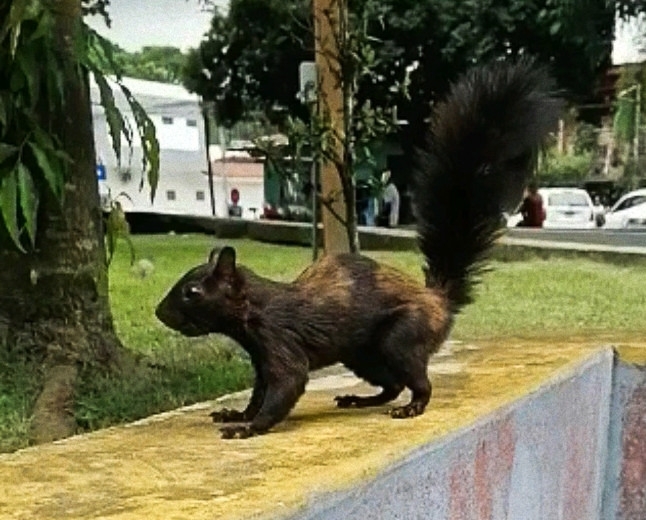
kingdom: Animalia
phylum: Chordata
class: Mammalia
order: Rodentia
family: Sciuridae
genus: Sciurus
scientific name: Sciurus variegatoides
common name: Variegated squirrel
